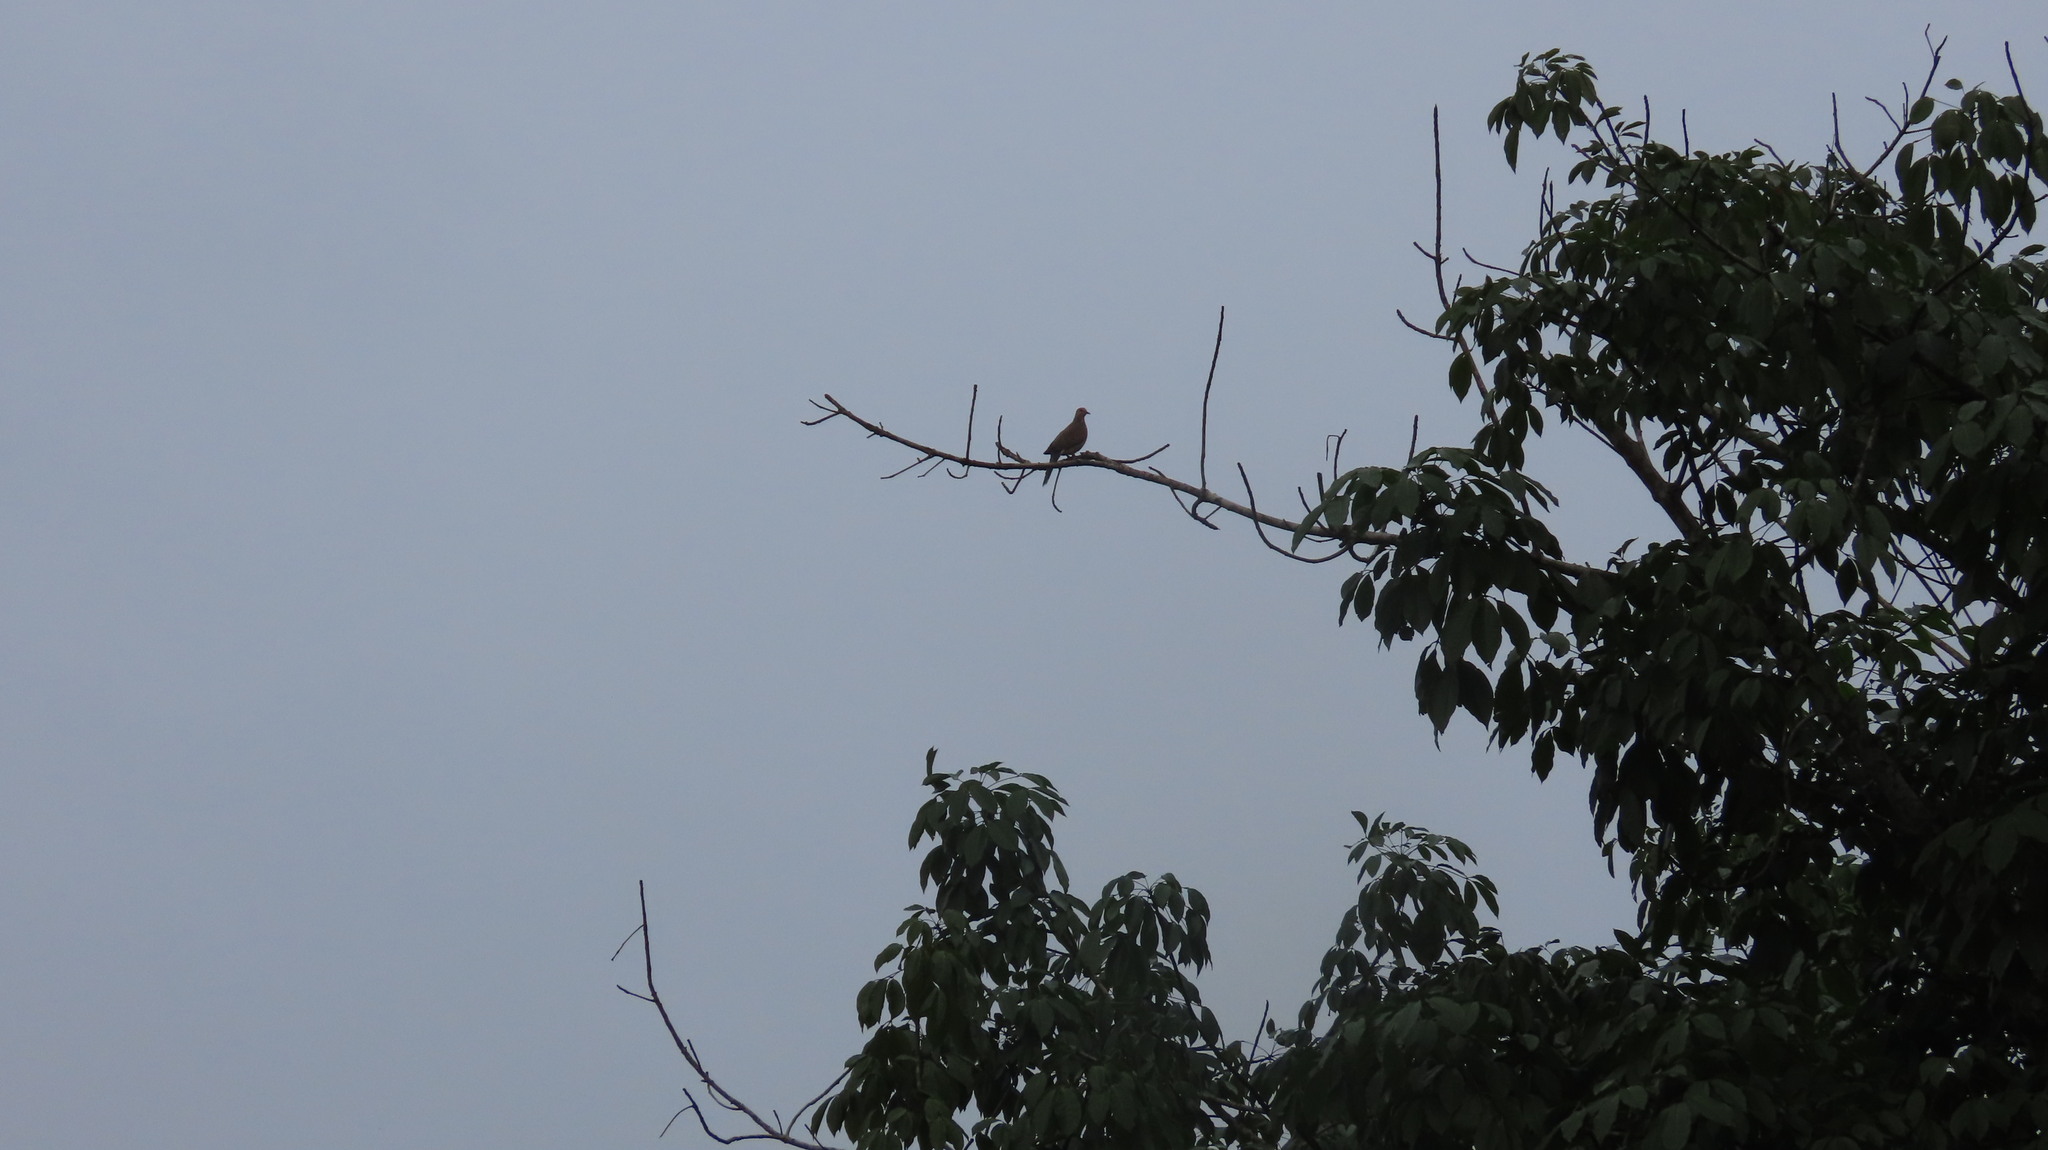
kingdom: Animalia
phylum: Chordata
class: Aves
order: Columbiformes
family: Columbidae
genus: Spilopelia
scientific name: Spilopelia chinensis
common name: Spotted dove
